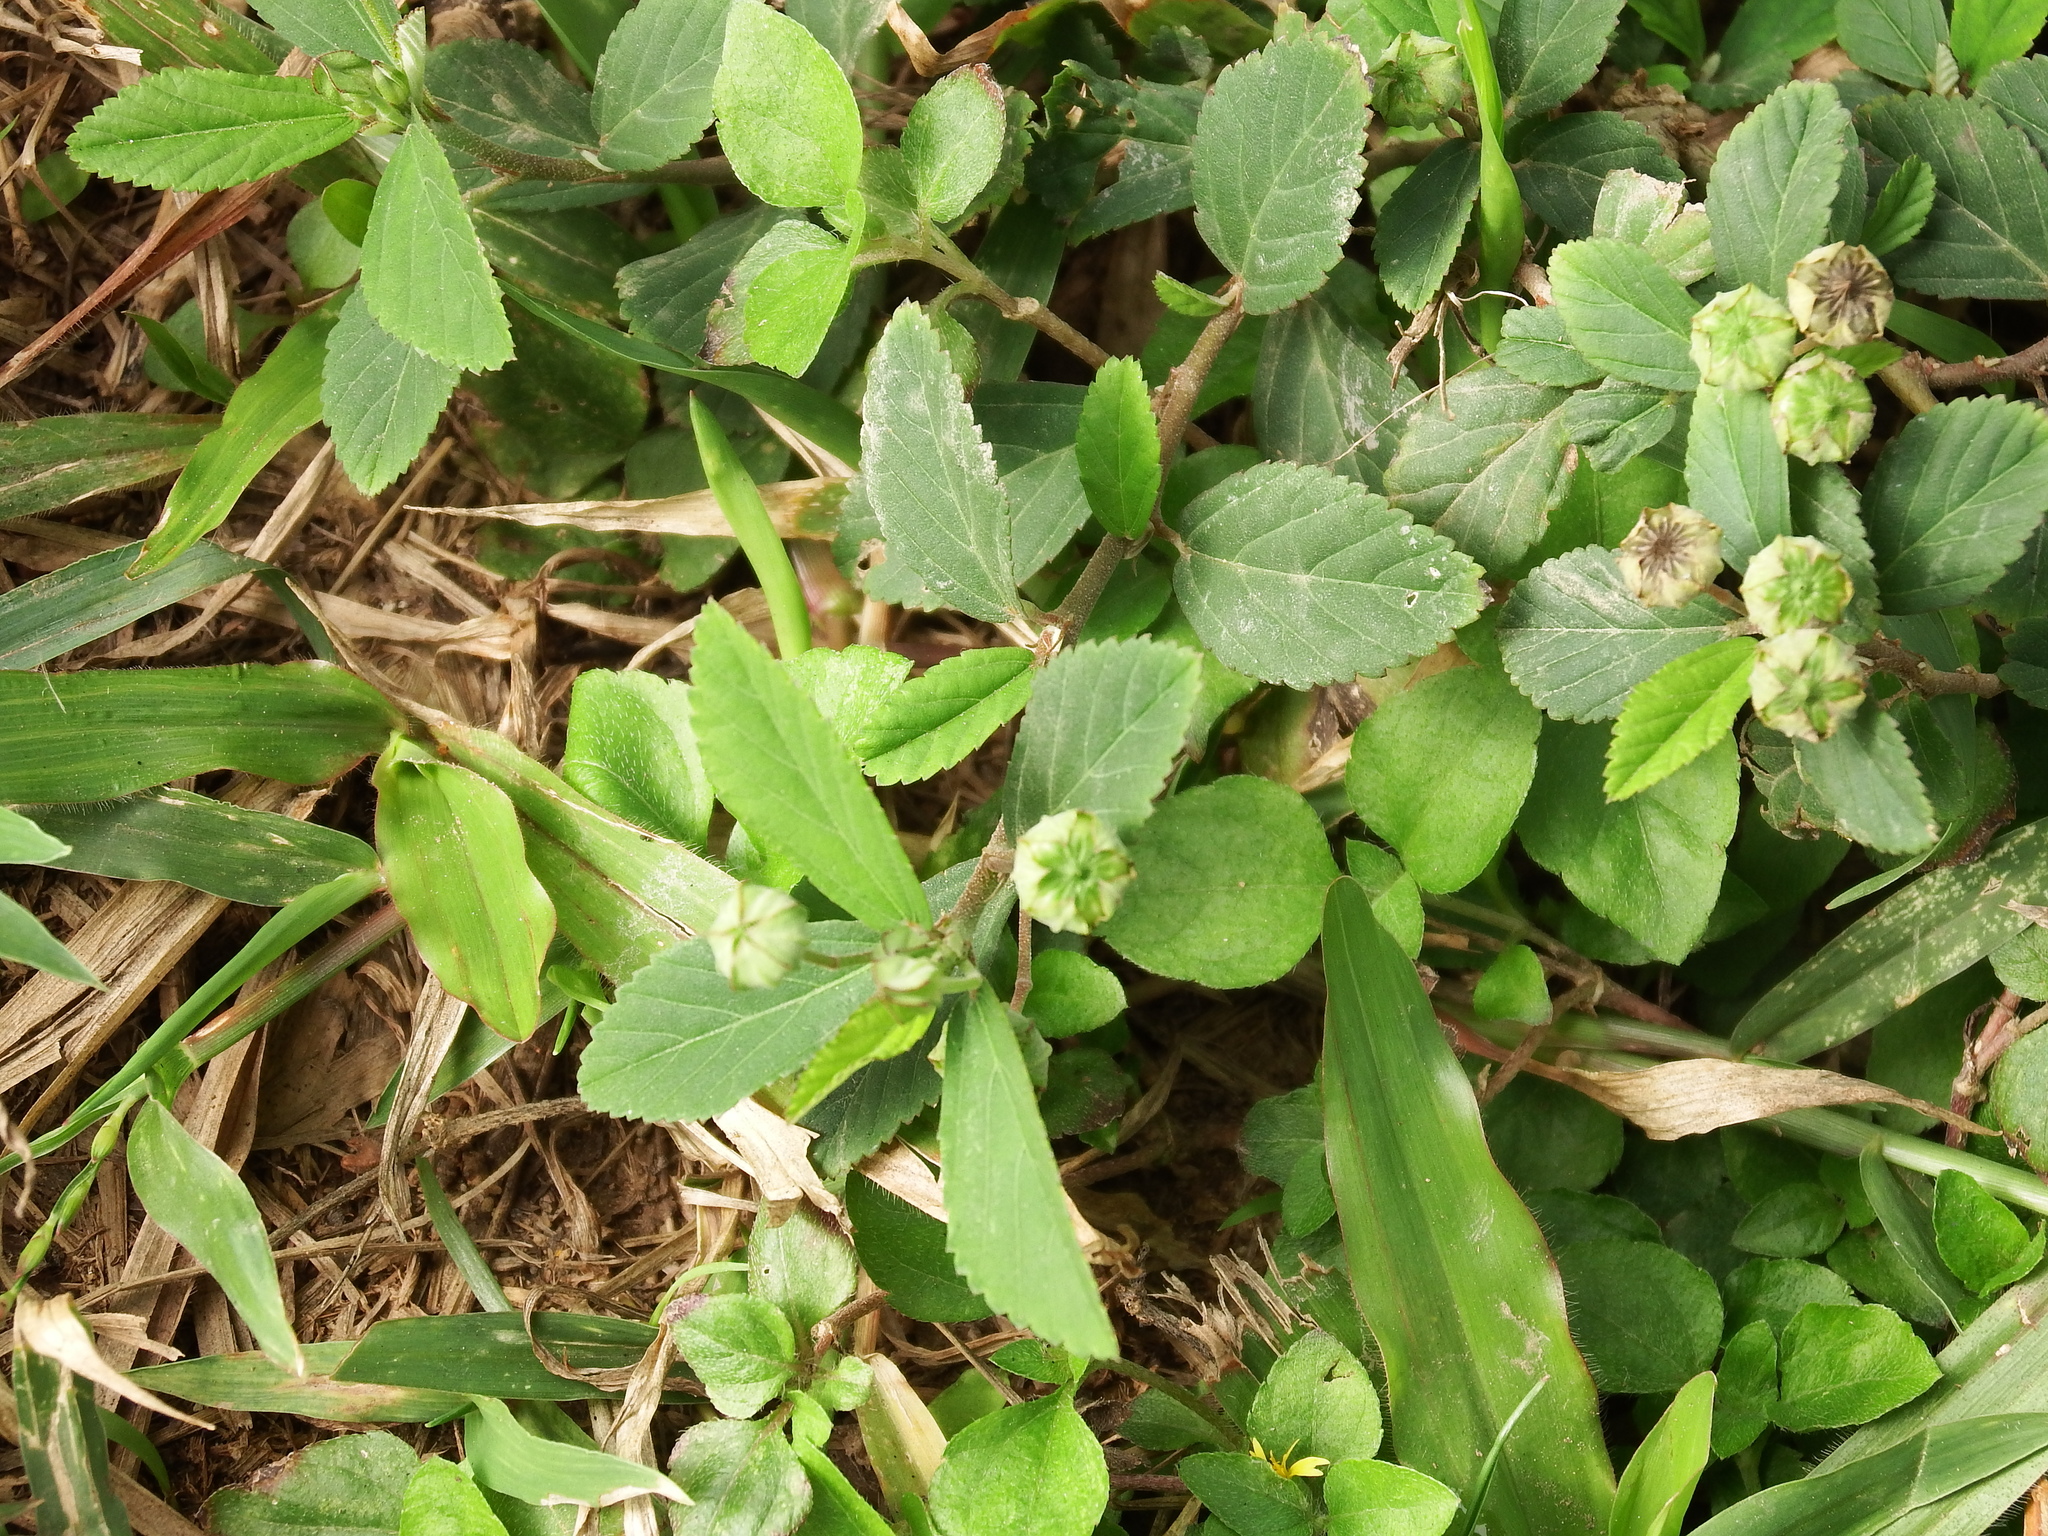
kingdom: Plantae
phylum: Tracheophyta
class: Magnoliopsida
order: Malvales
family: Malvaceae
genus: Sida
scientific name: Sida rhombifolia
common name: Queensland-hemp
